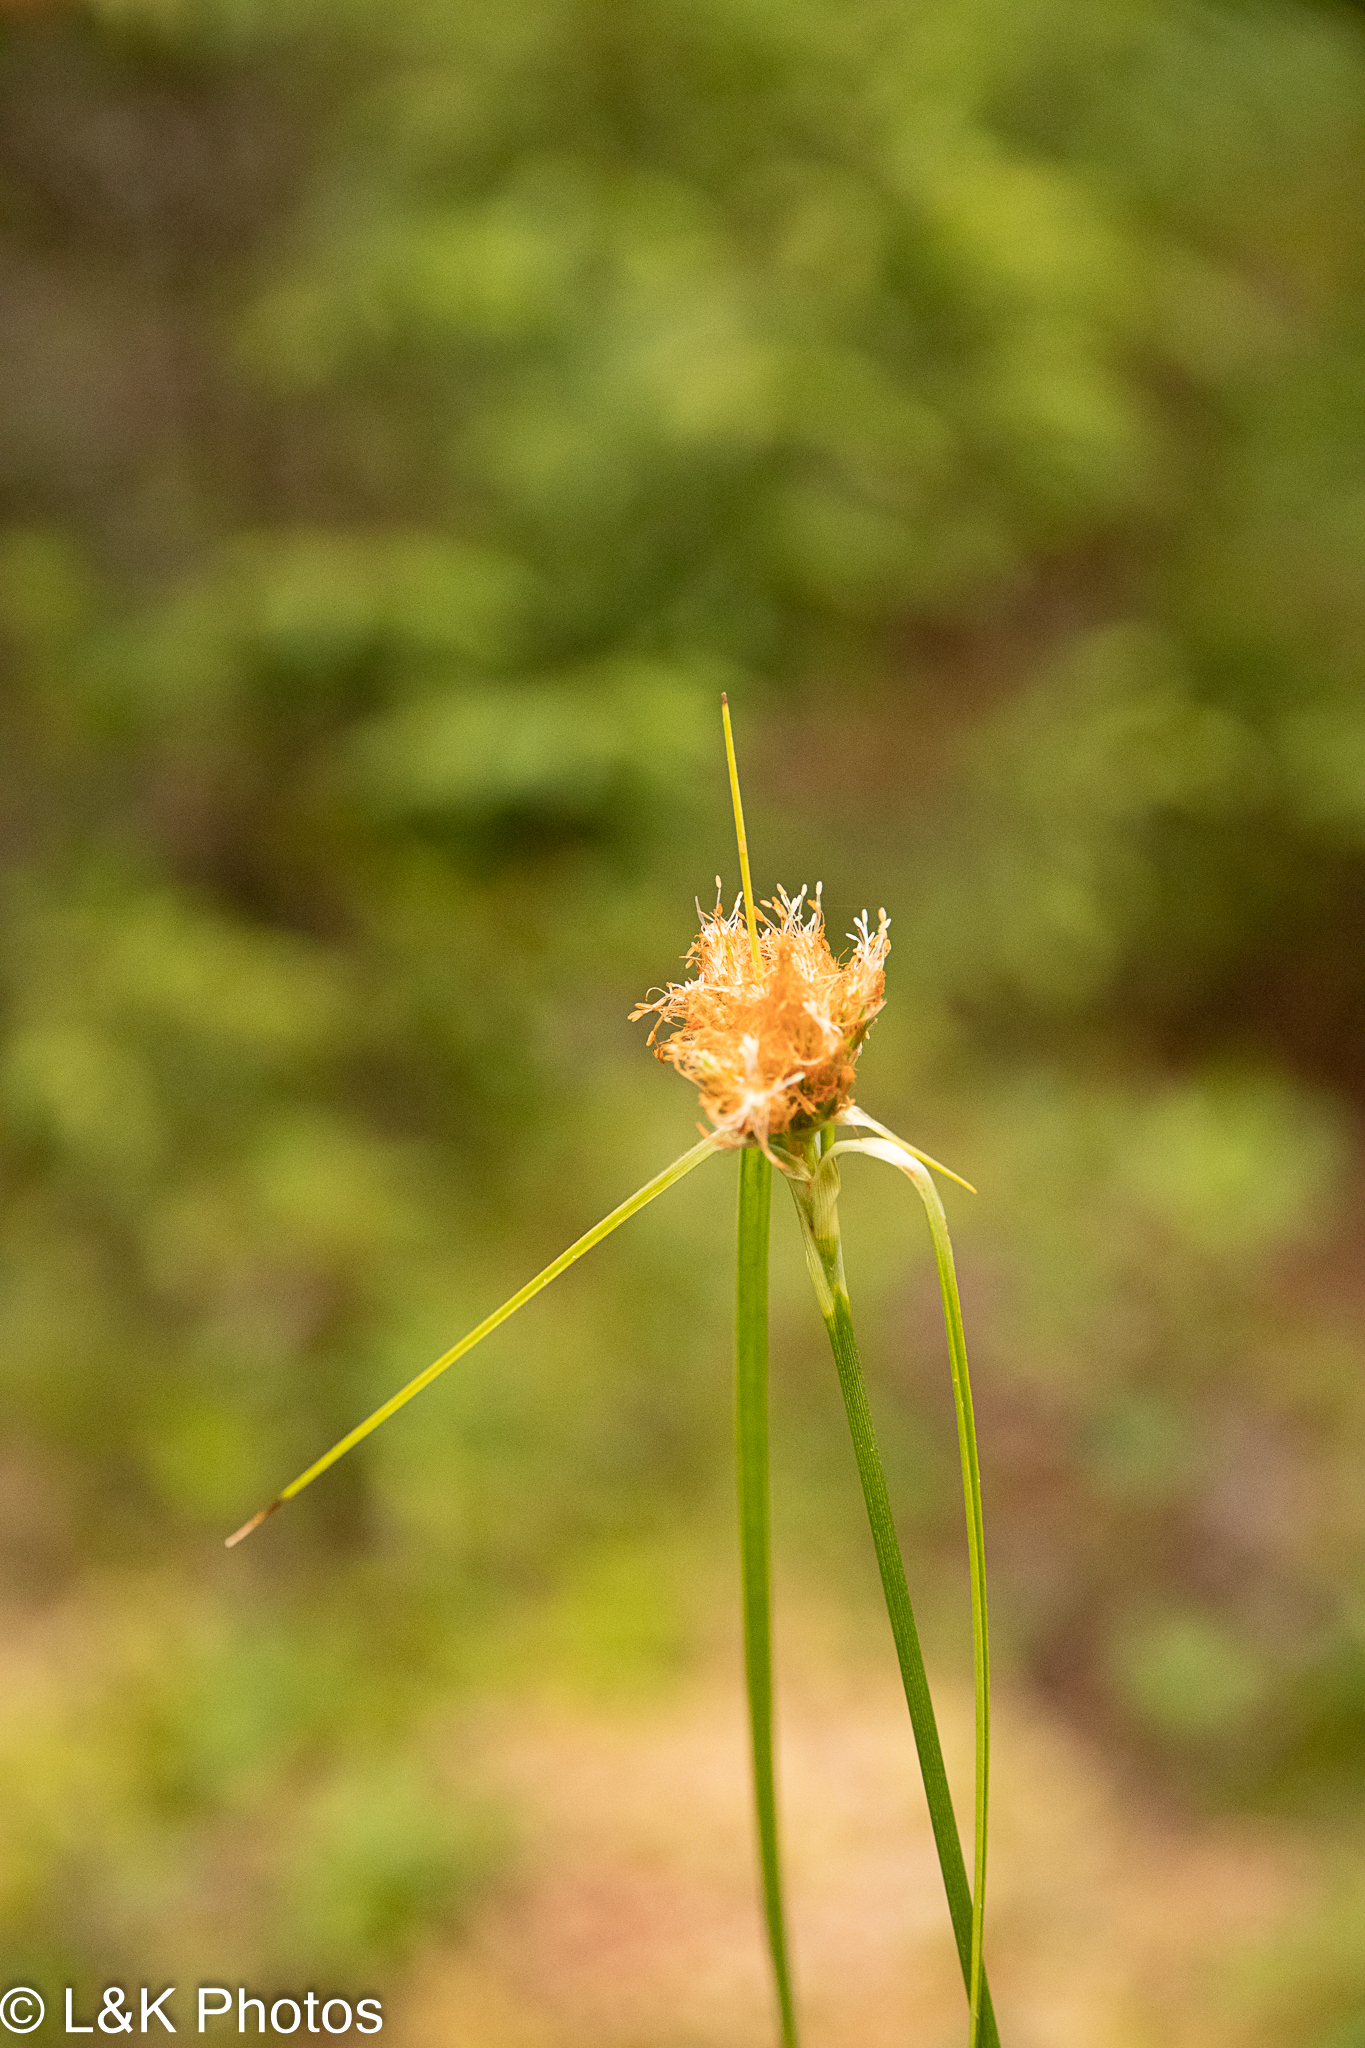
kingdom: Plantae
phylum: Tracheophyta
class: Liliopsida
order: Poales
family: Cyperaceae
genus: Rhynchospora
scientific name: Rhynchospora alba
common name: White beak-sedge
